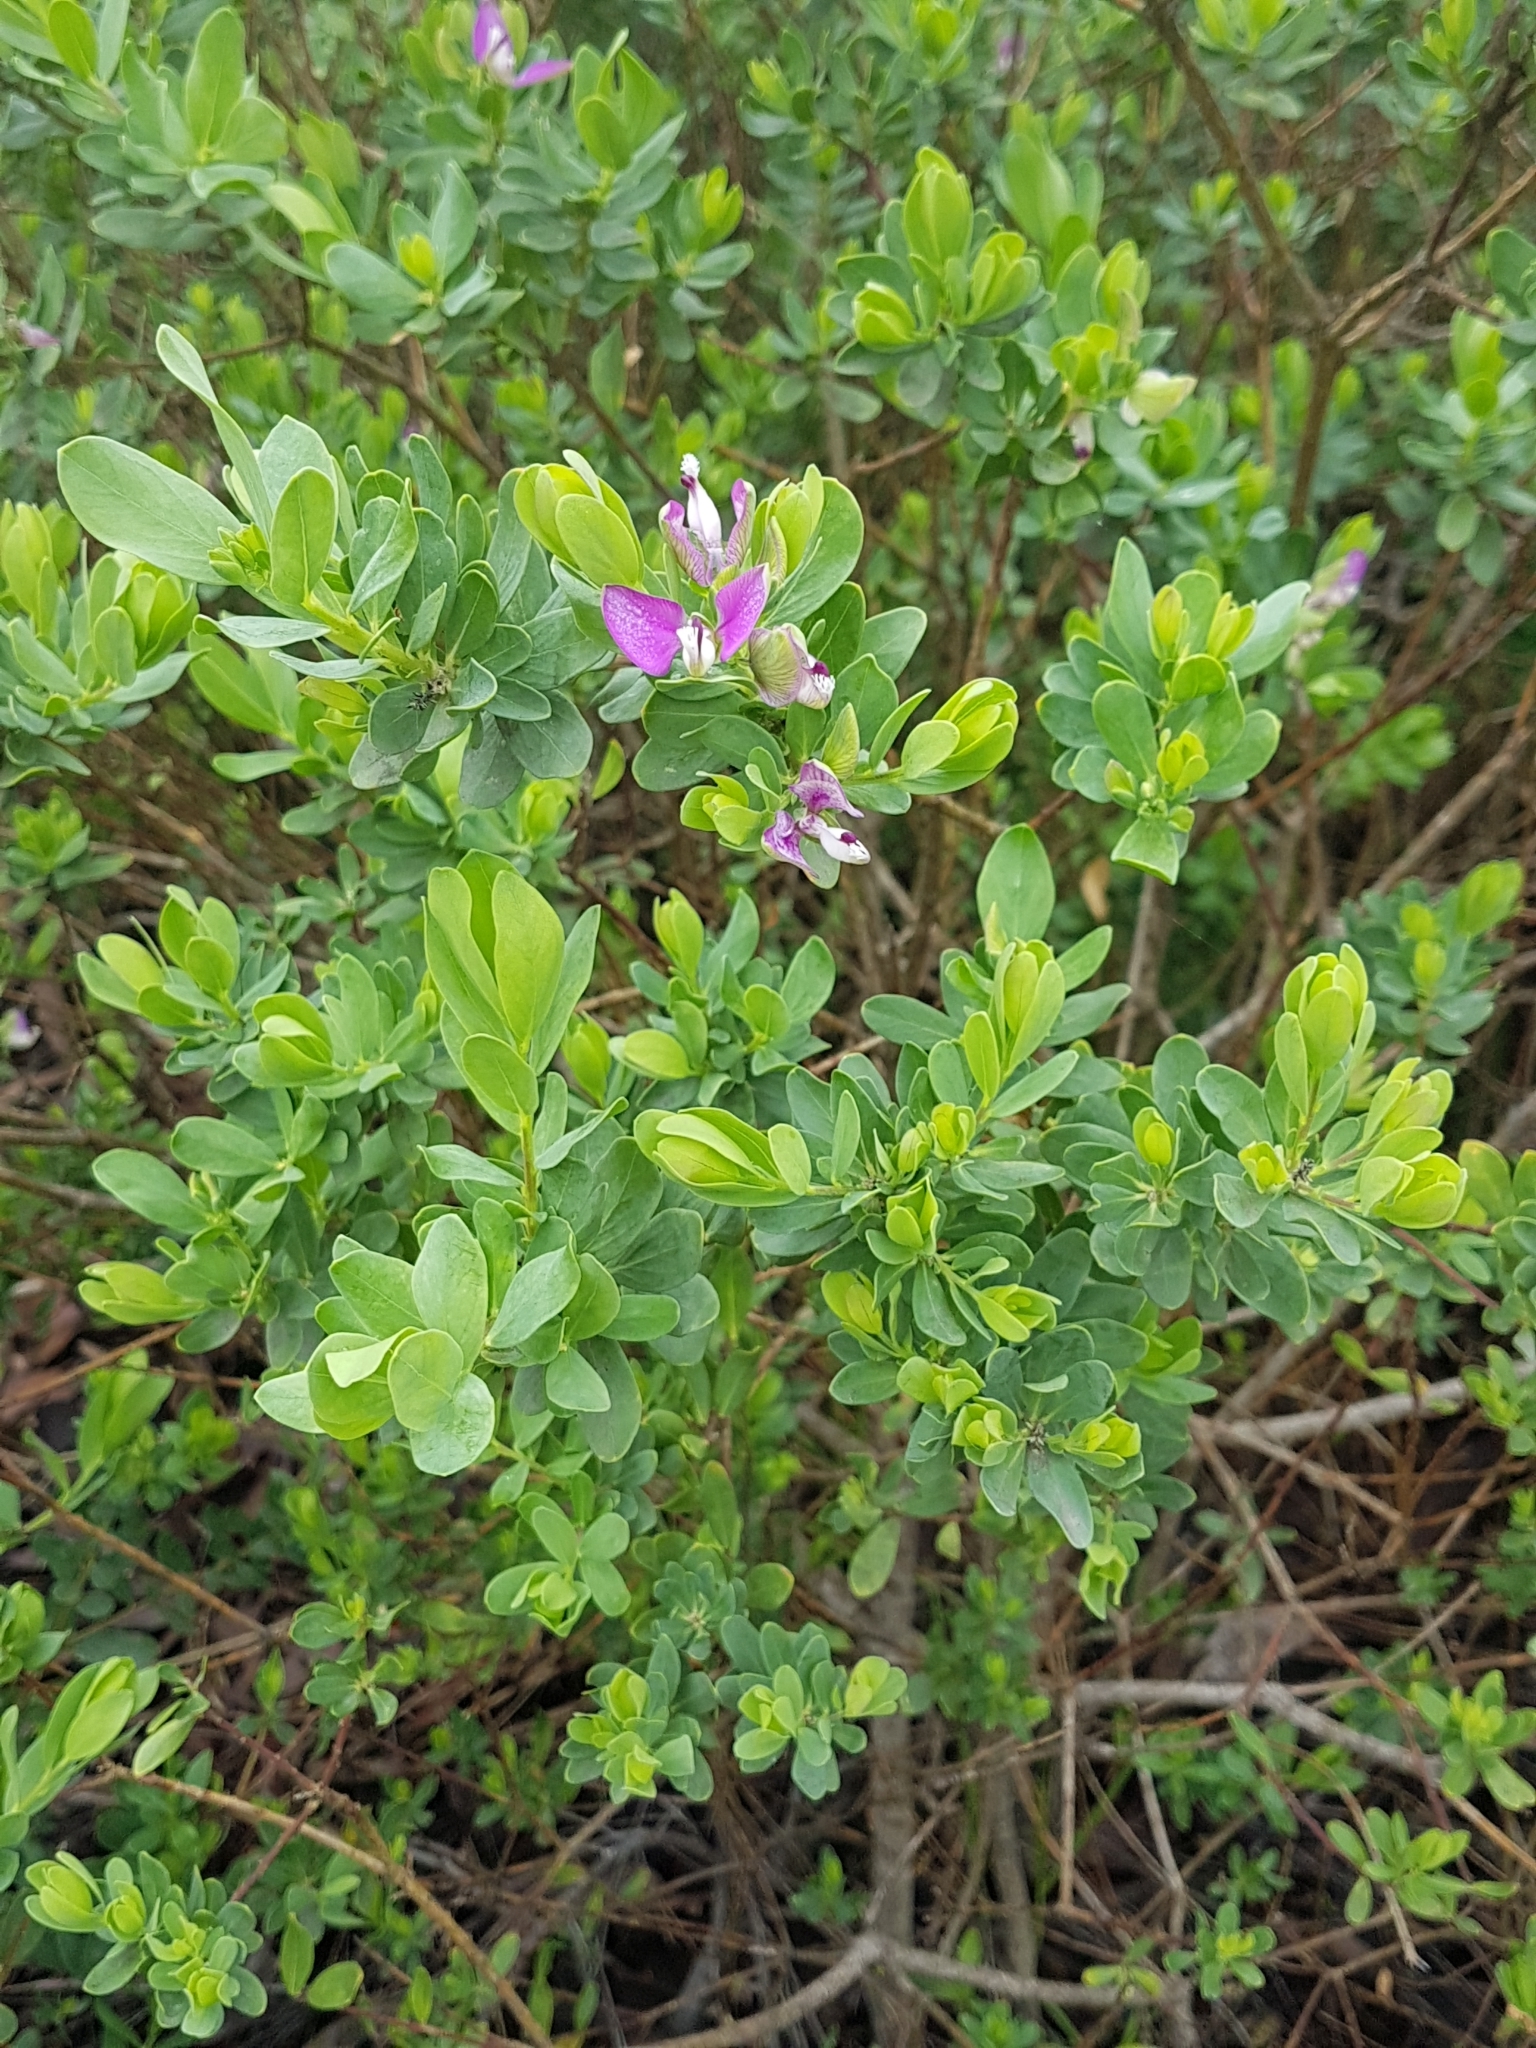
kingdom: Plantae
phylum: Tracheophyta
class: Magnoliopsida
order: Fabales
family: Polygalaceae
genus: Polygala
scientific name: Polygala myrtifolia
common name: Myrtle-leaf milkwort
